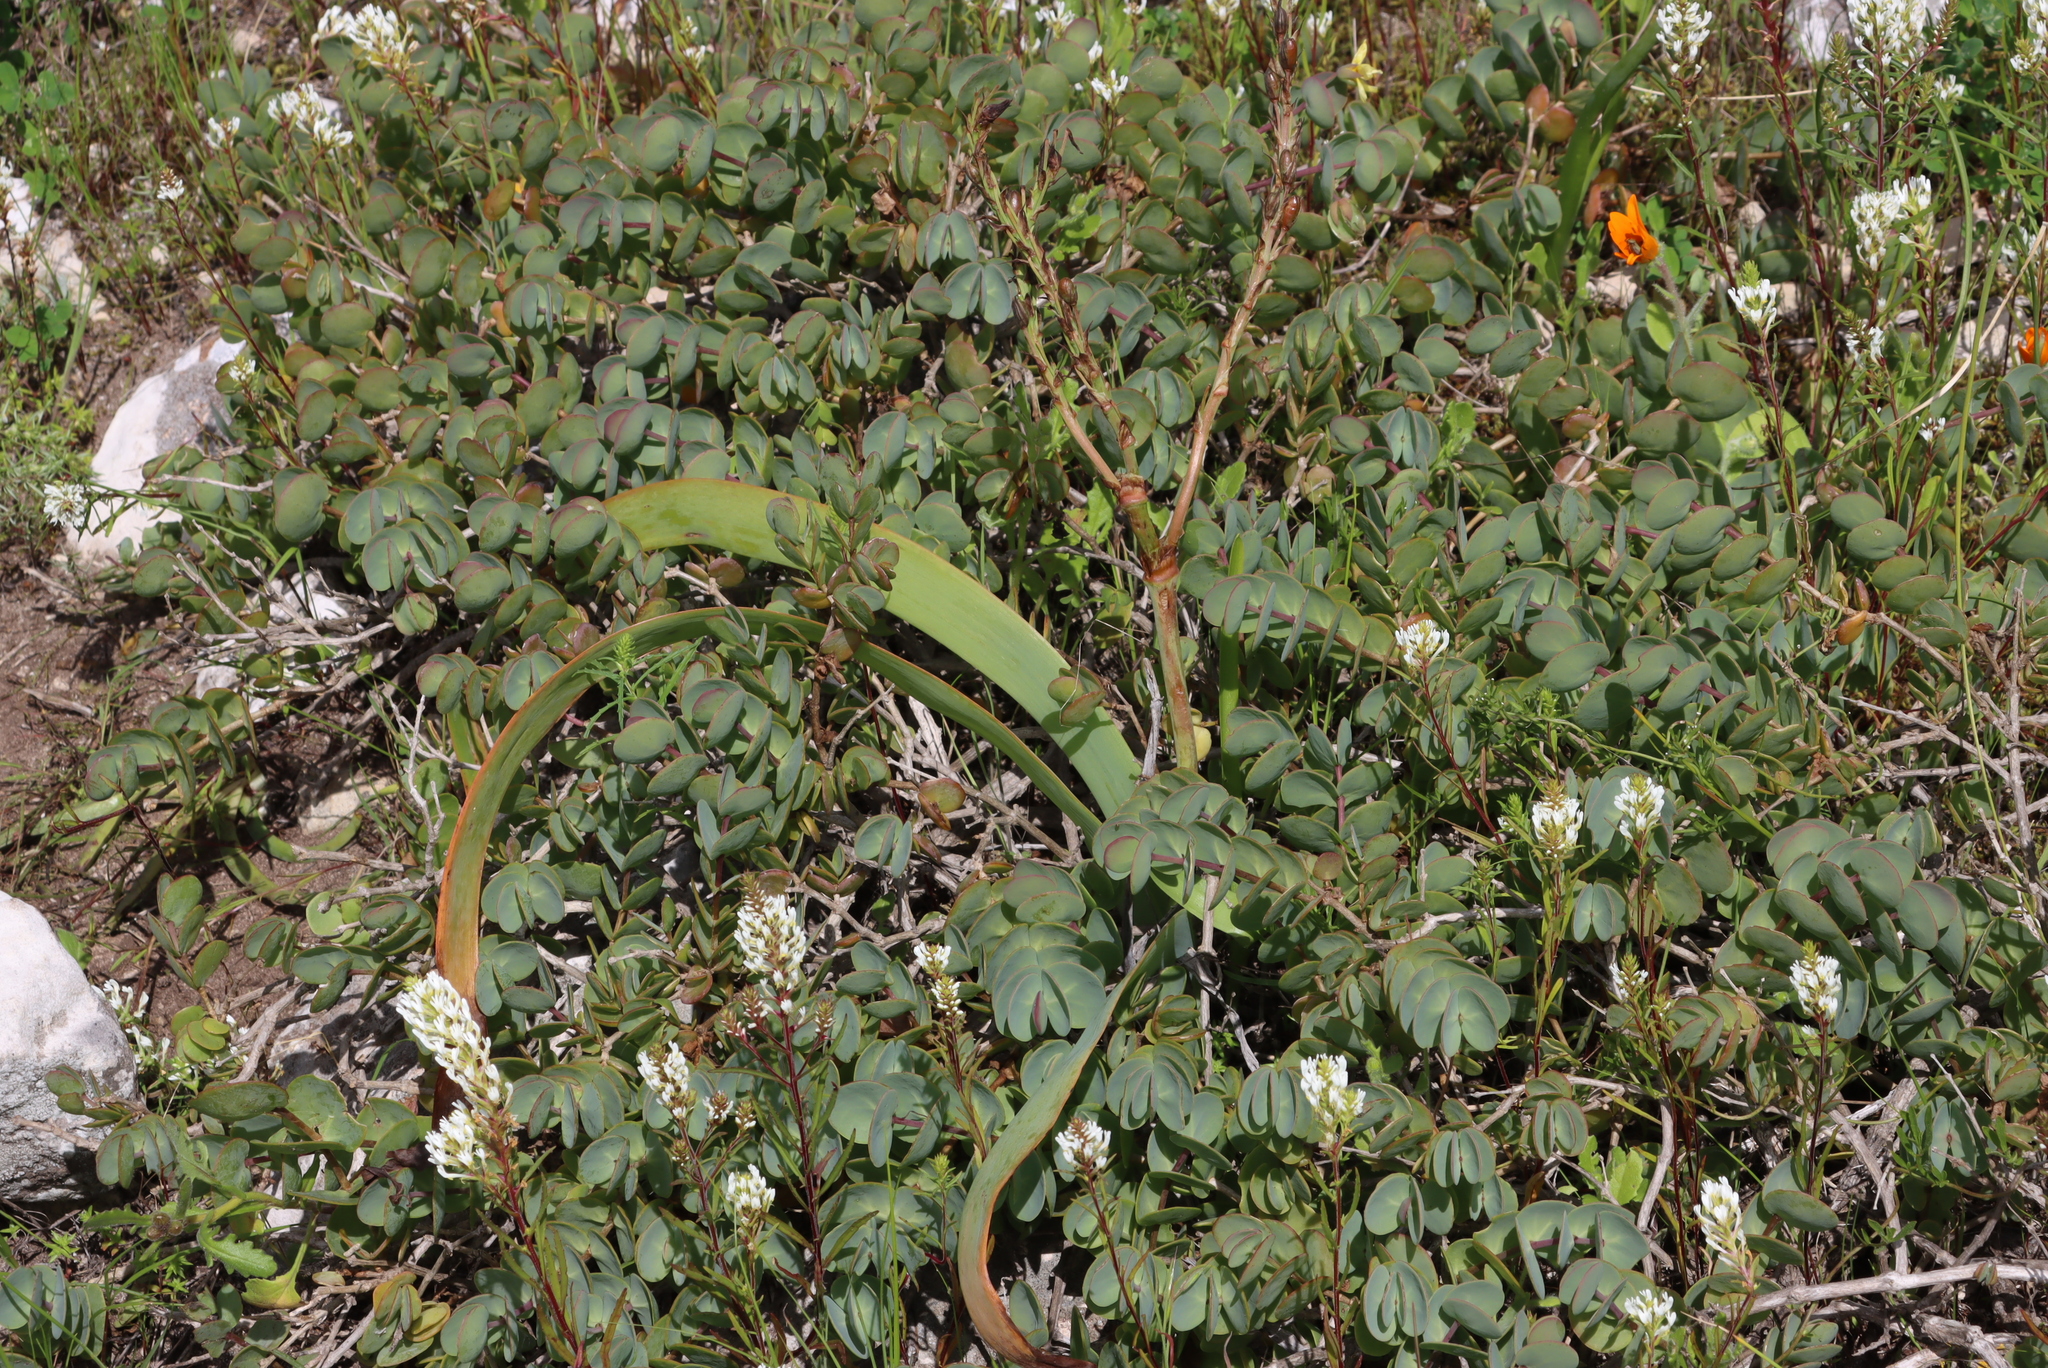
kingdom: Plantae
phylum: Tracheophyta
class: Magnoliopsida
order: Zygophyllales
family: Zygophyllaceae
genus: Roepera
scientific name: Roepera cordifolia
